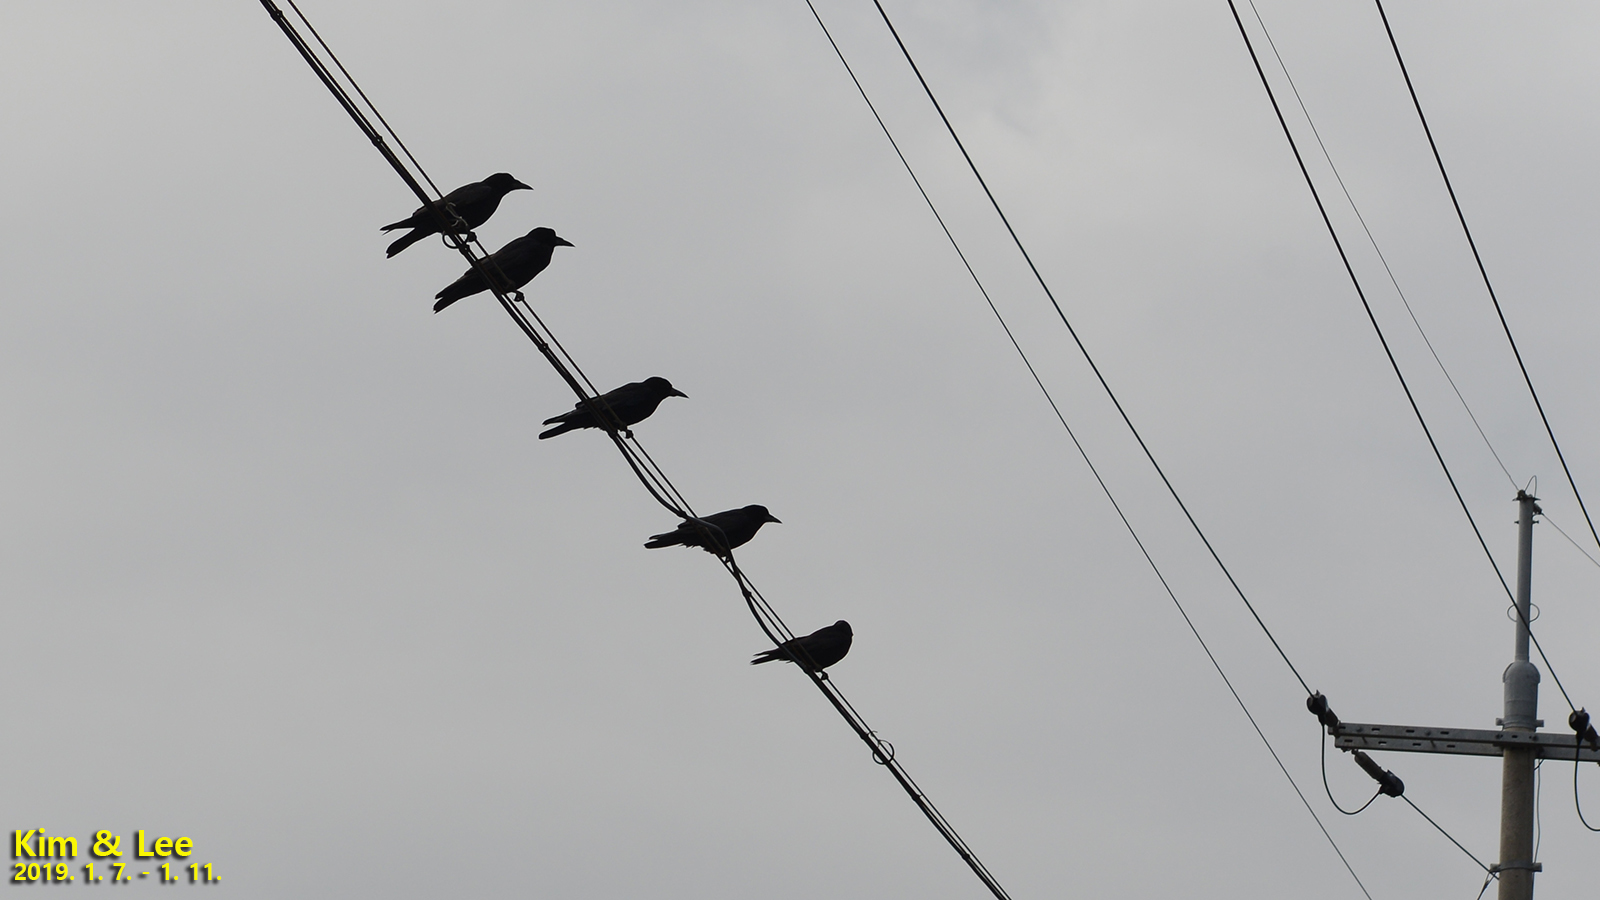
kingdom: Animalia
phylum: Chordata
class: Aves
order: Passeriformes
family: Corvidae
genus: Corvus
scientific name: Corvus frugilegus
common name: Rook
